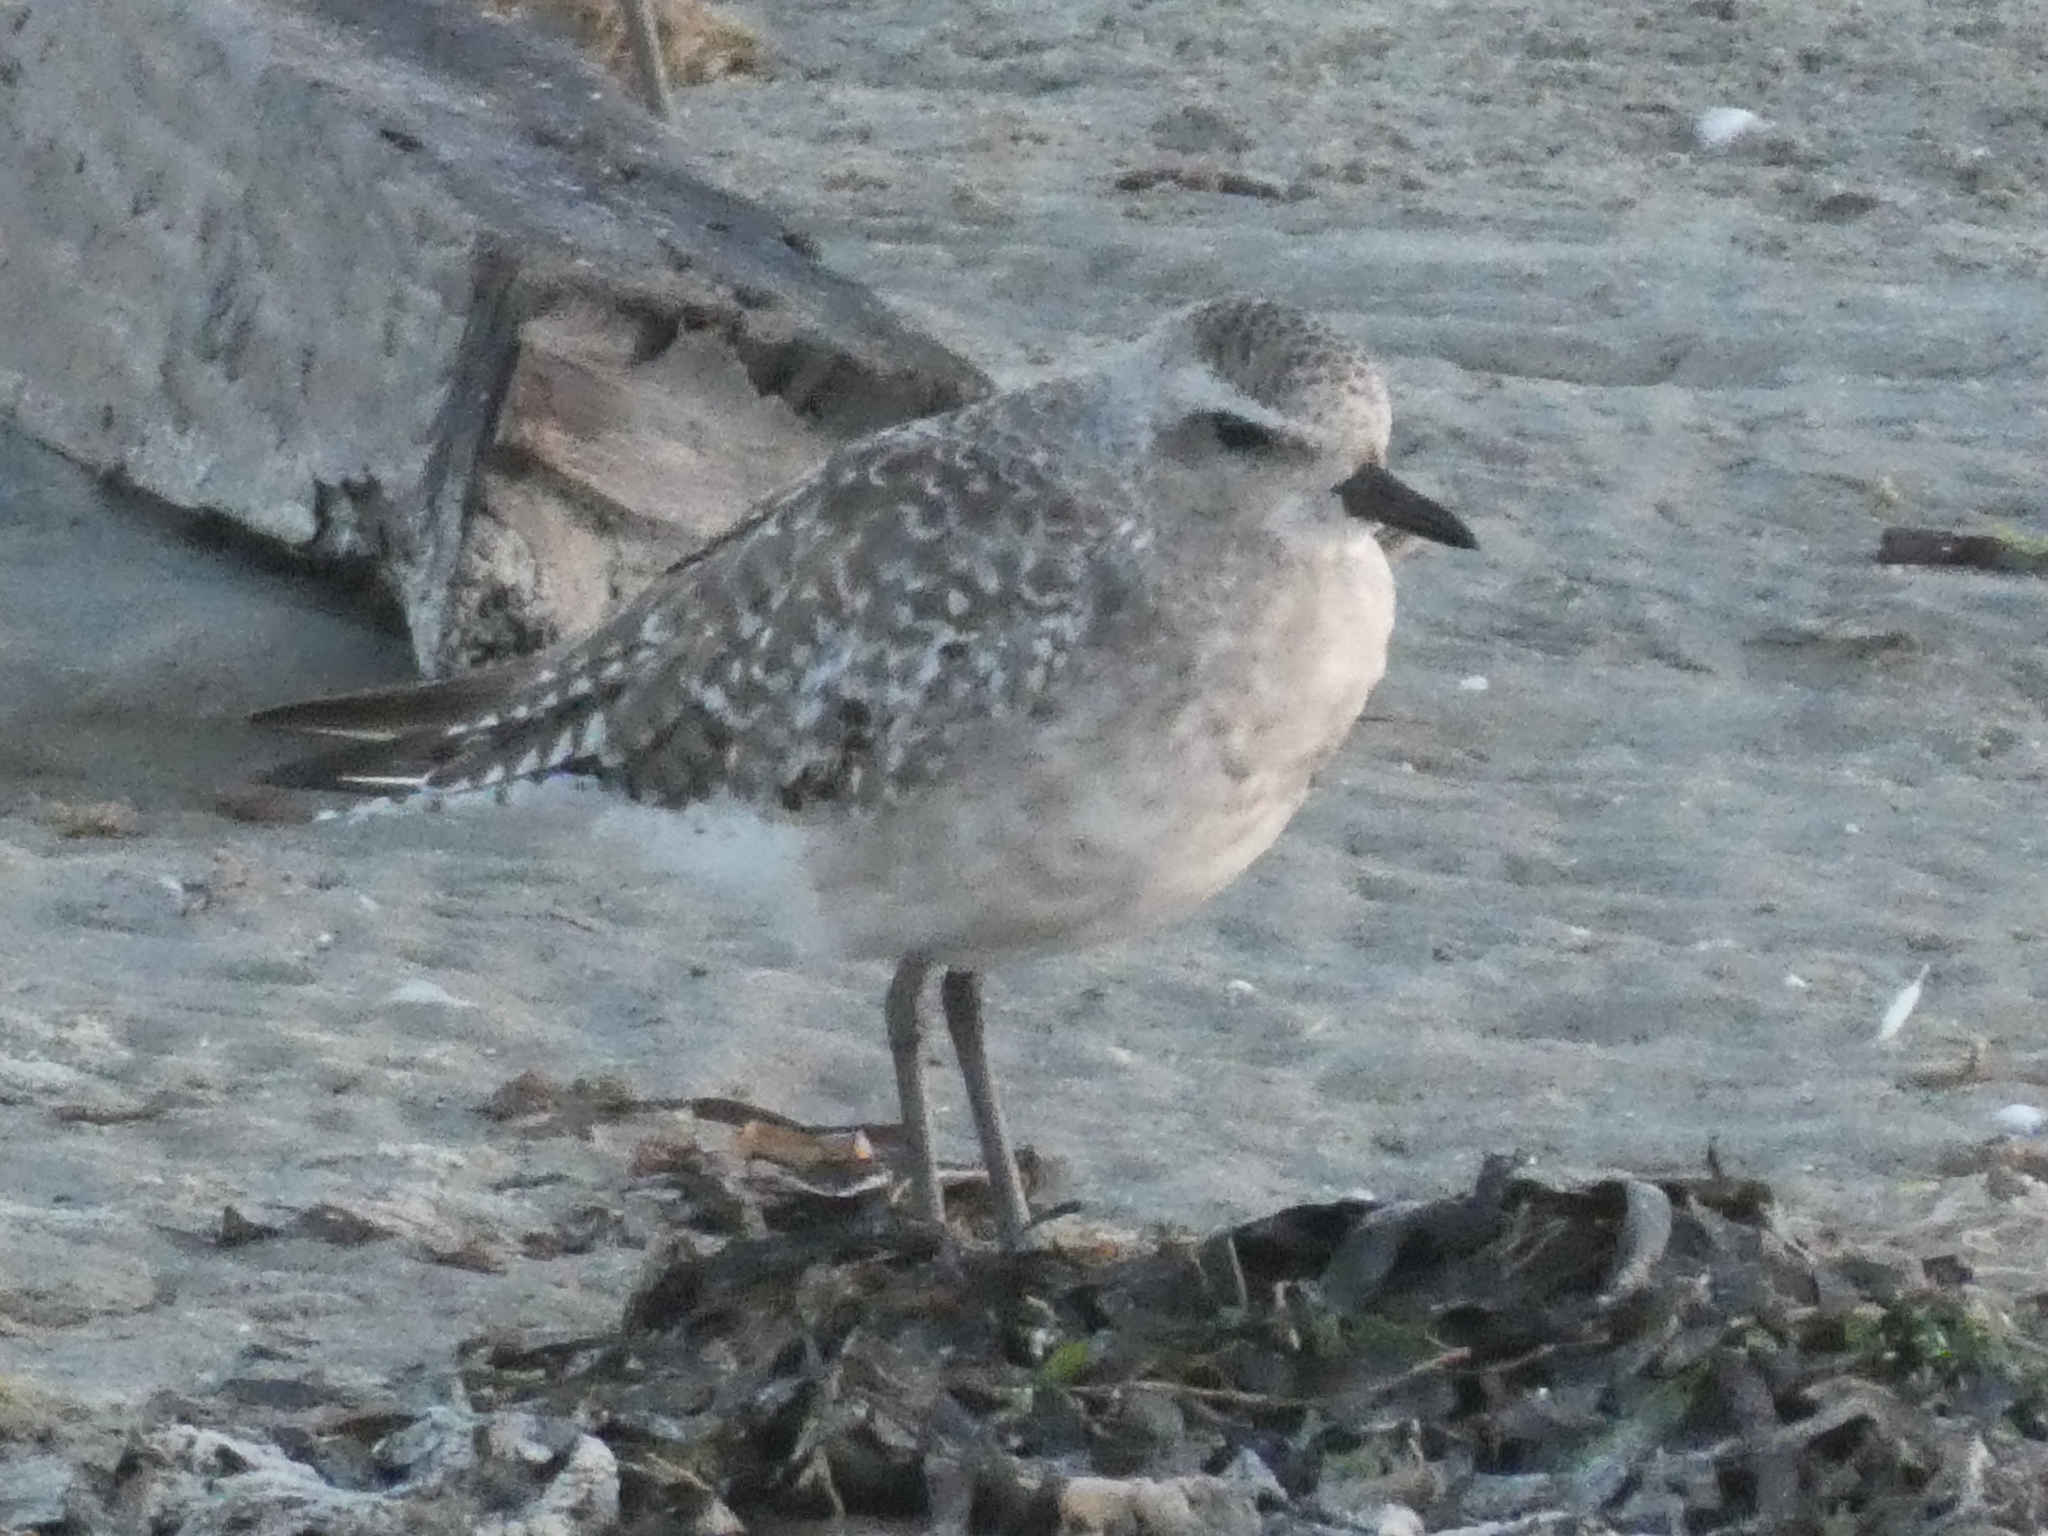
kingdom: Animalia
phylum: Chordata
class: Aves
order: Charadriiformes
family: Charadriidae
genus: Pluvialis
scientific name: Pluvialis squatarola
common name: Grey plover
